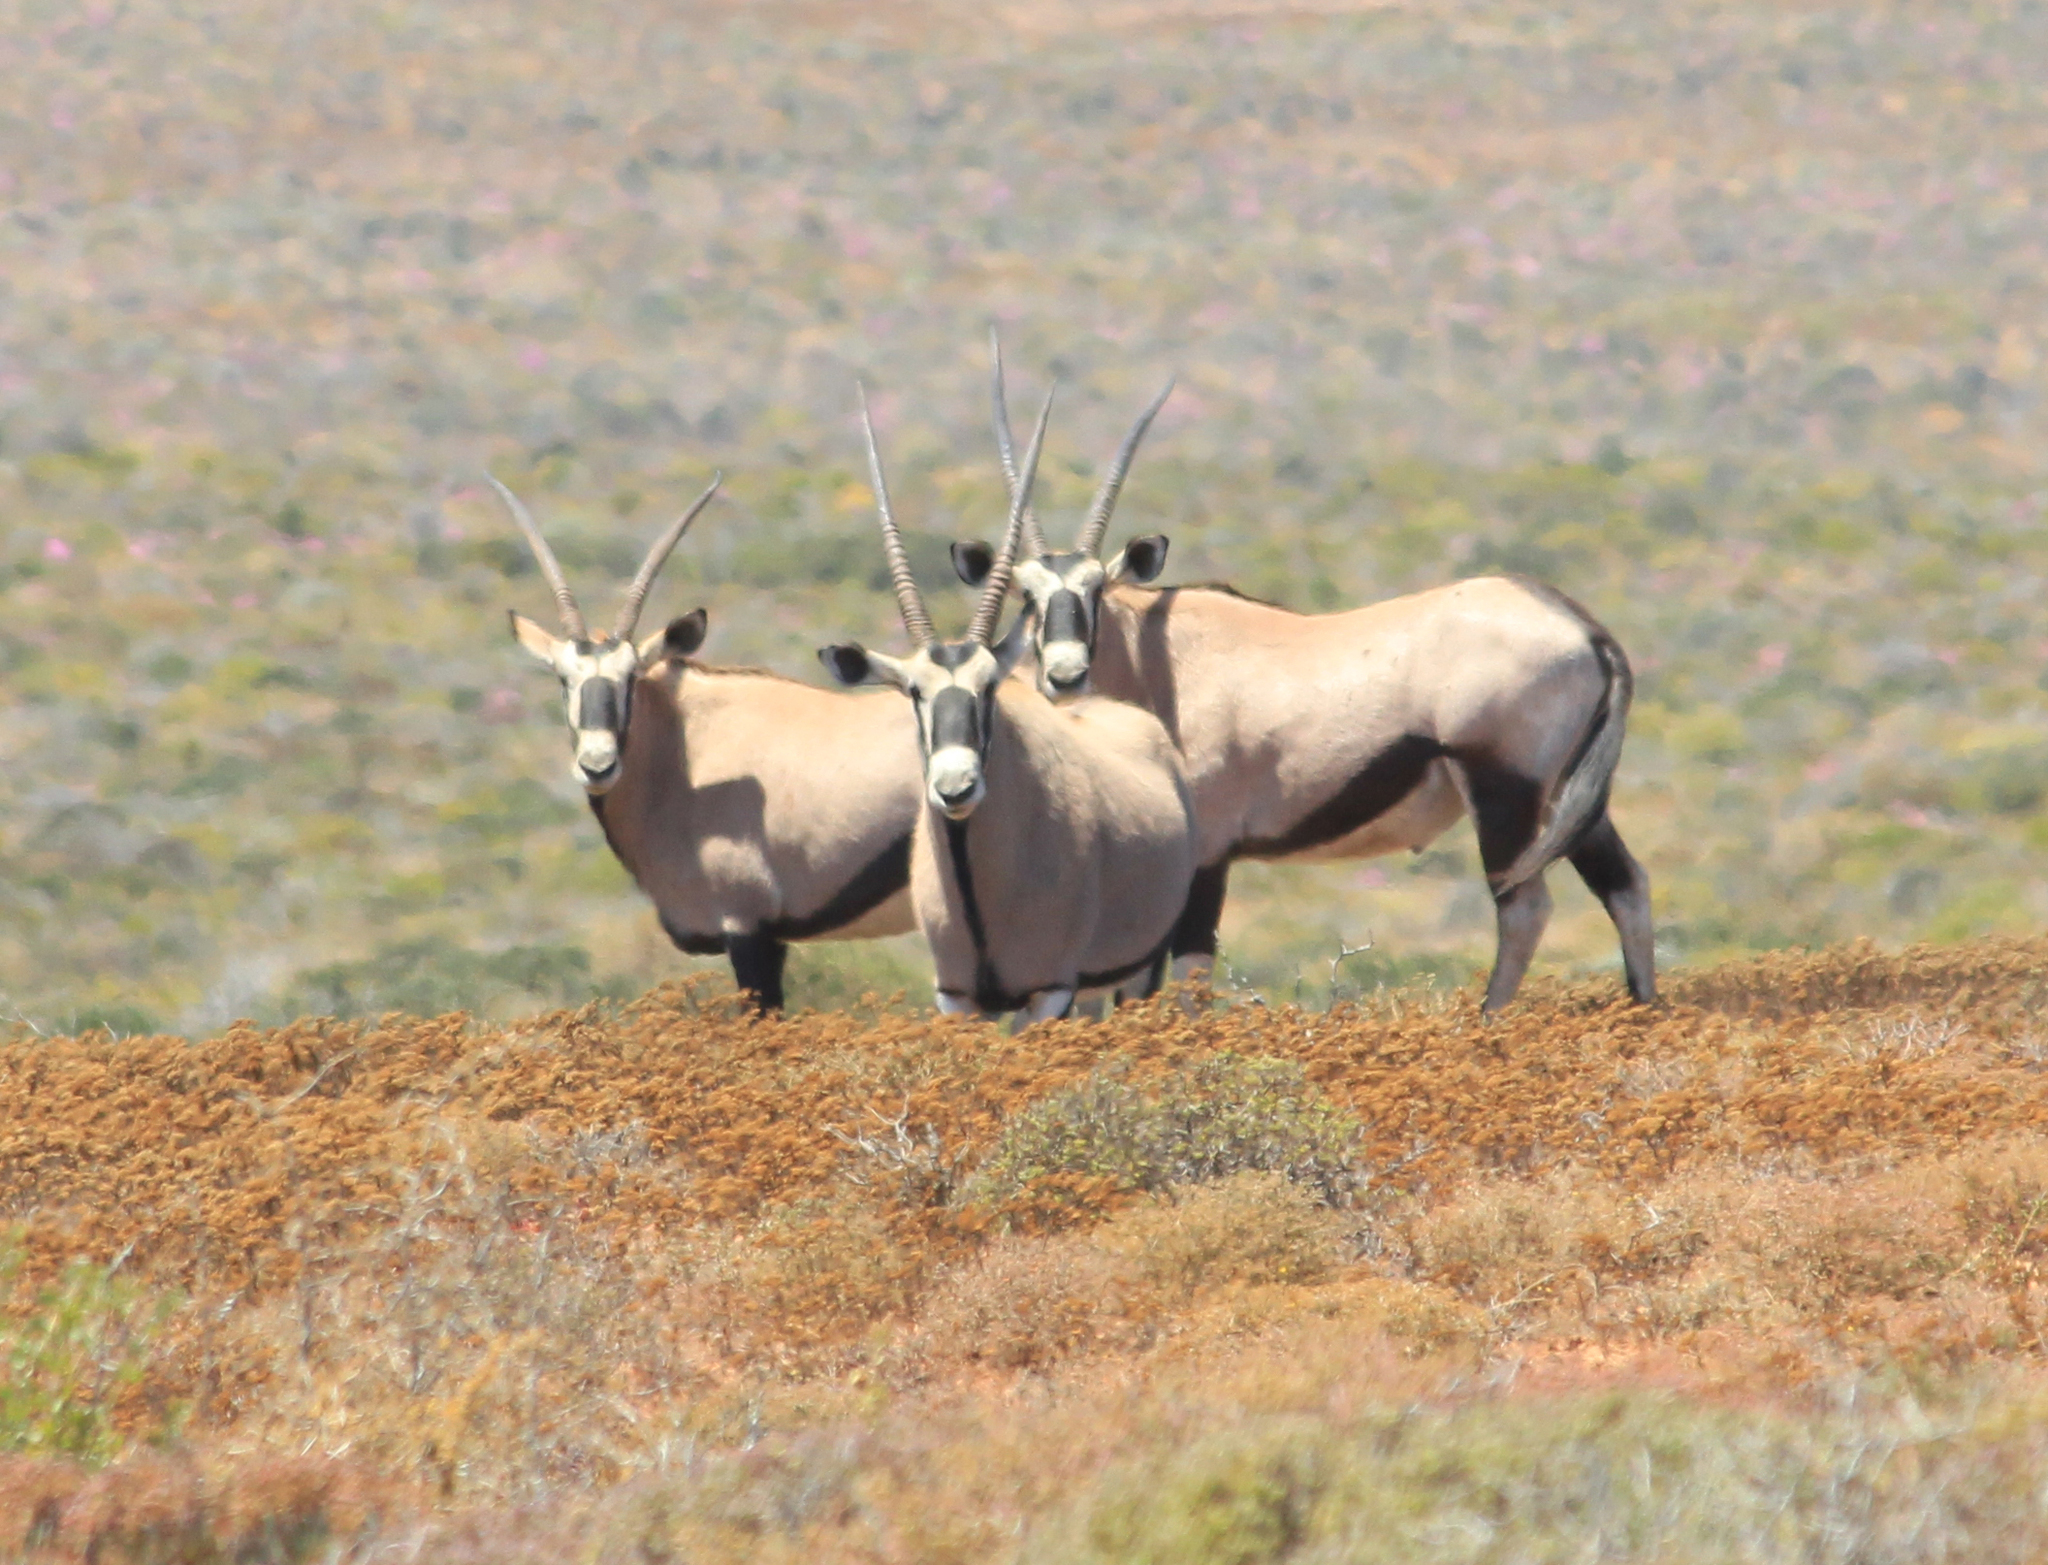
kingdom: Animalia
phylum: Chordata
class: Mammalia
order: Artiodactyla
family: Bovidae
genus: Oryx
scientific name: Oryx gazella
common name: Gemsbok
